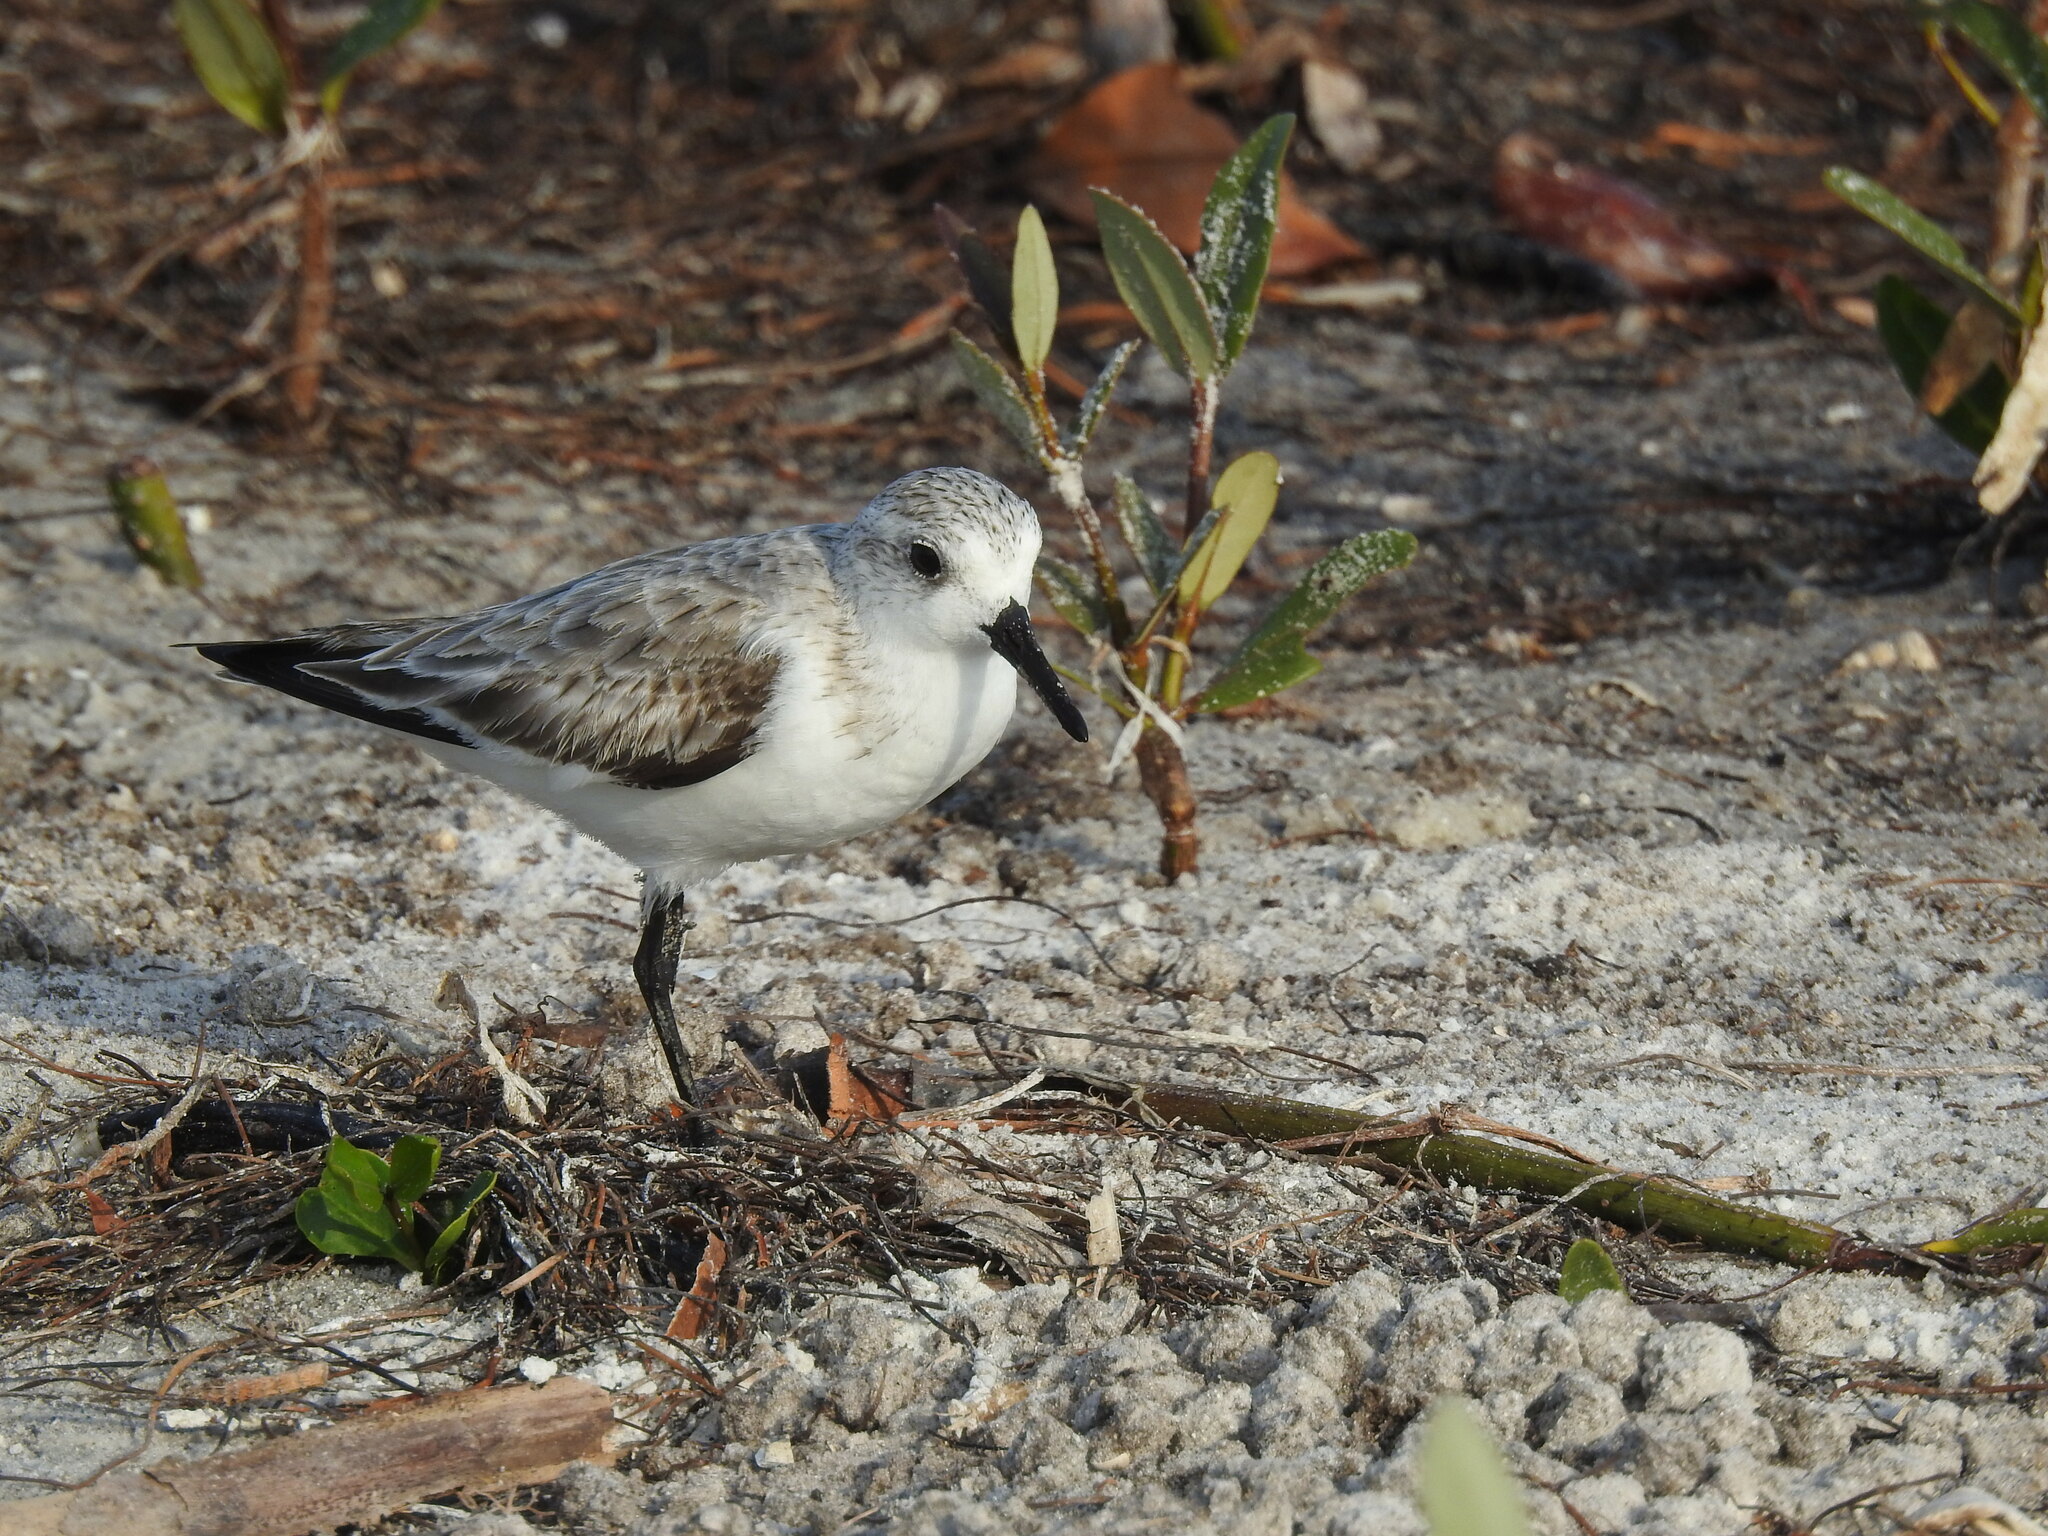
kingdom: Animalia
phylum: Chordata
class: Aves
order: Charadriiformes
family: Scolopacidae
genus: Calidris
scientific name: Calidris alba
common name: Sanderling
